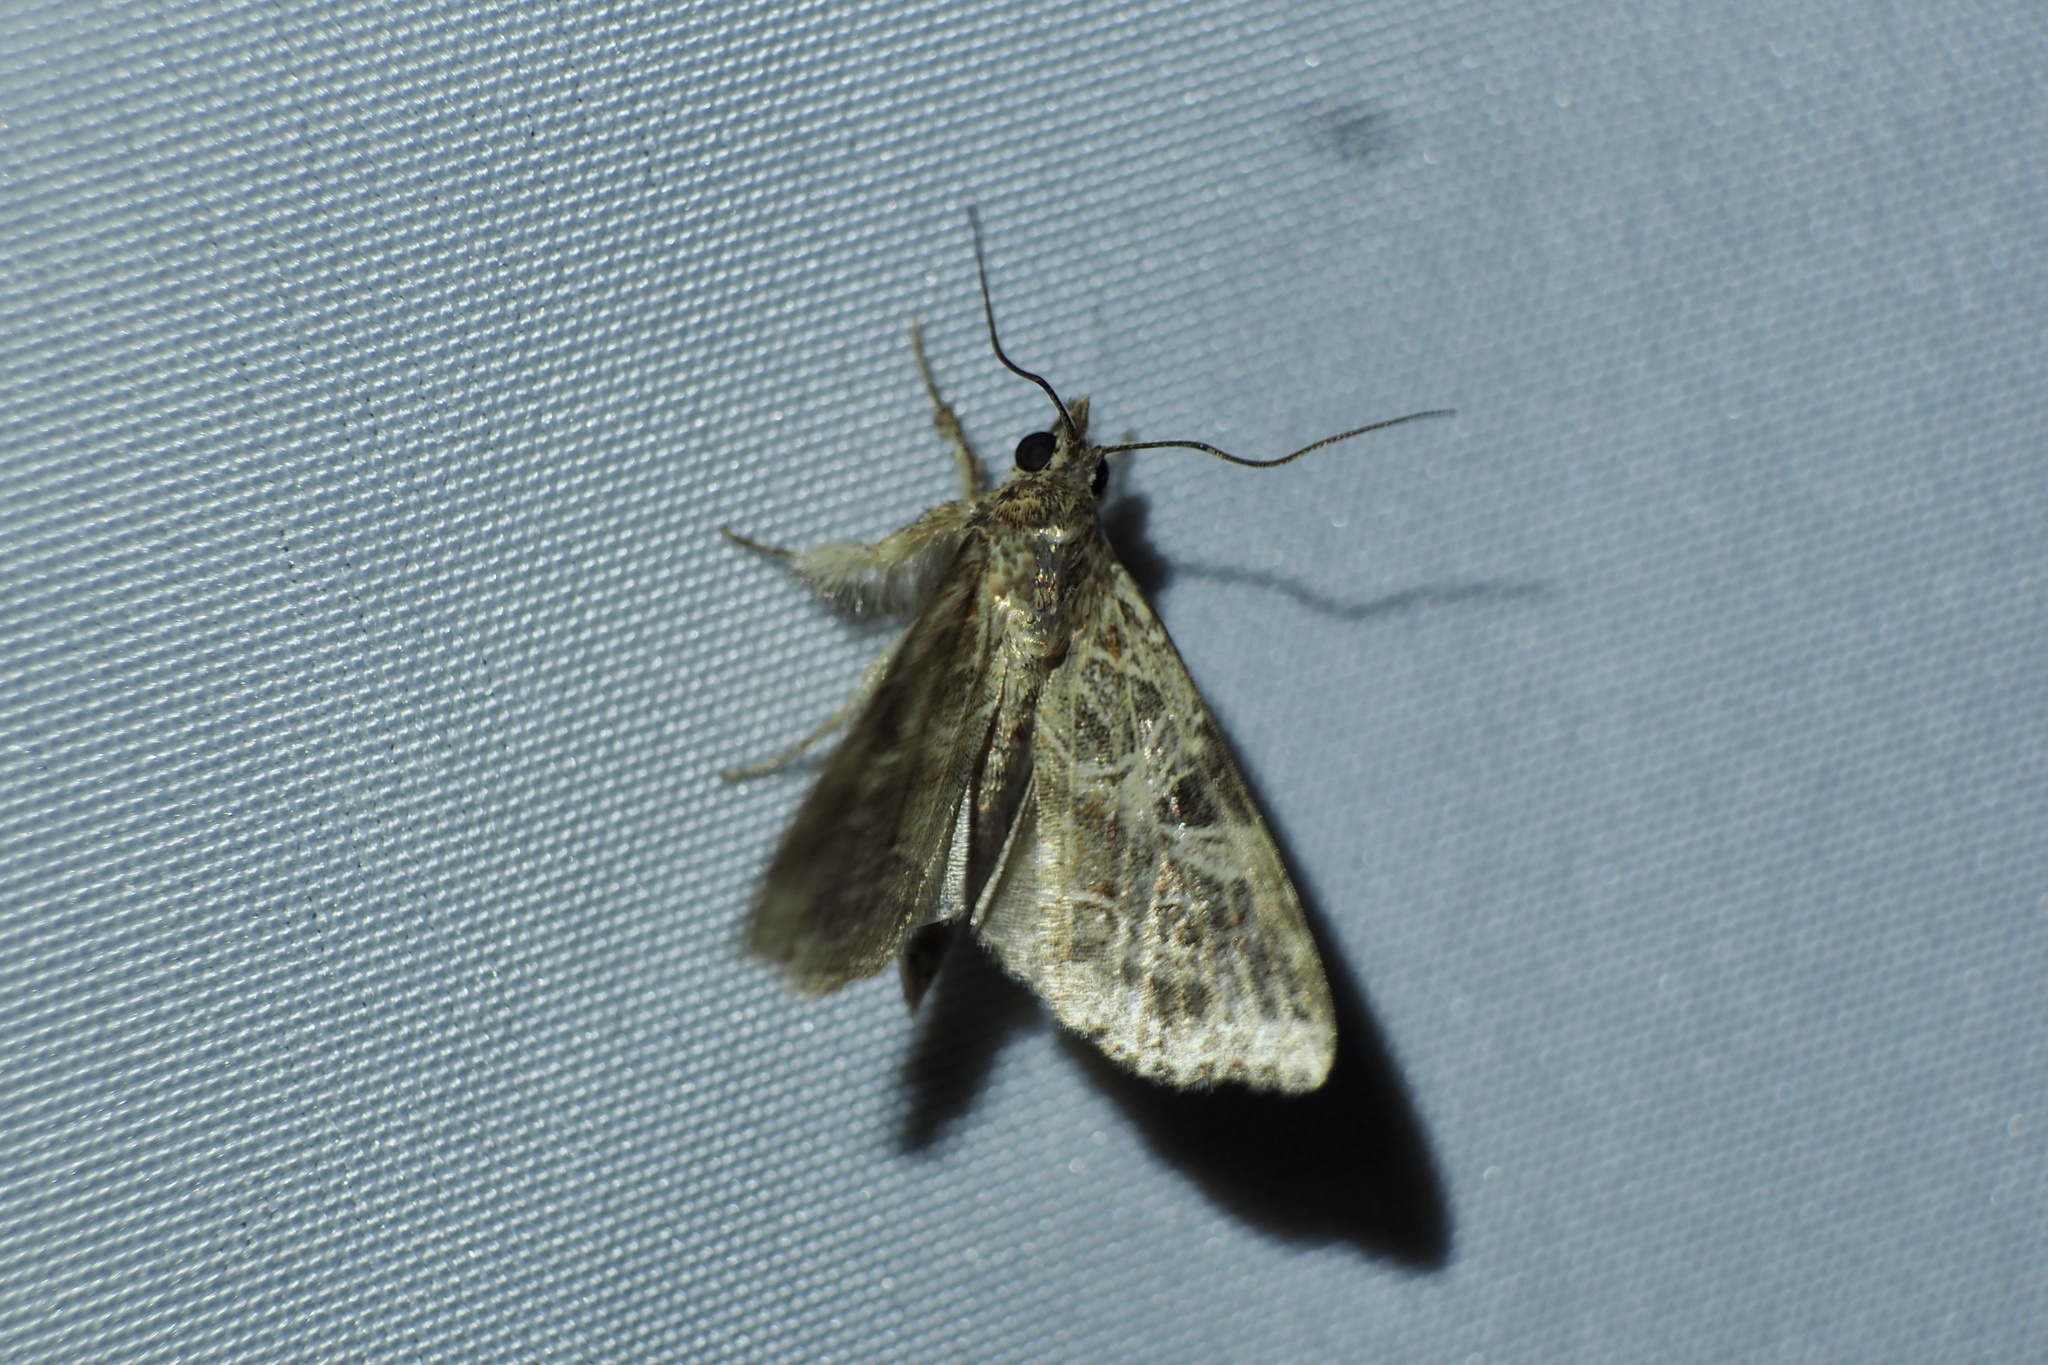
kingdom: Animalia
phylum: Arthropoda
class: Insecta
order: Lepidoptera
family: Noctuidae
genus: Callopistria
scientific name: Callopistria pulchrilinea
